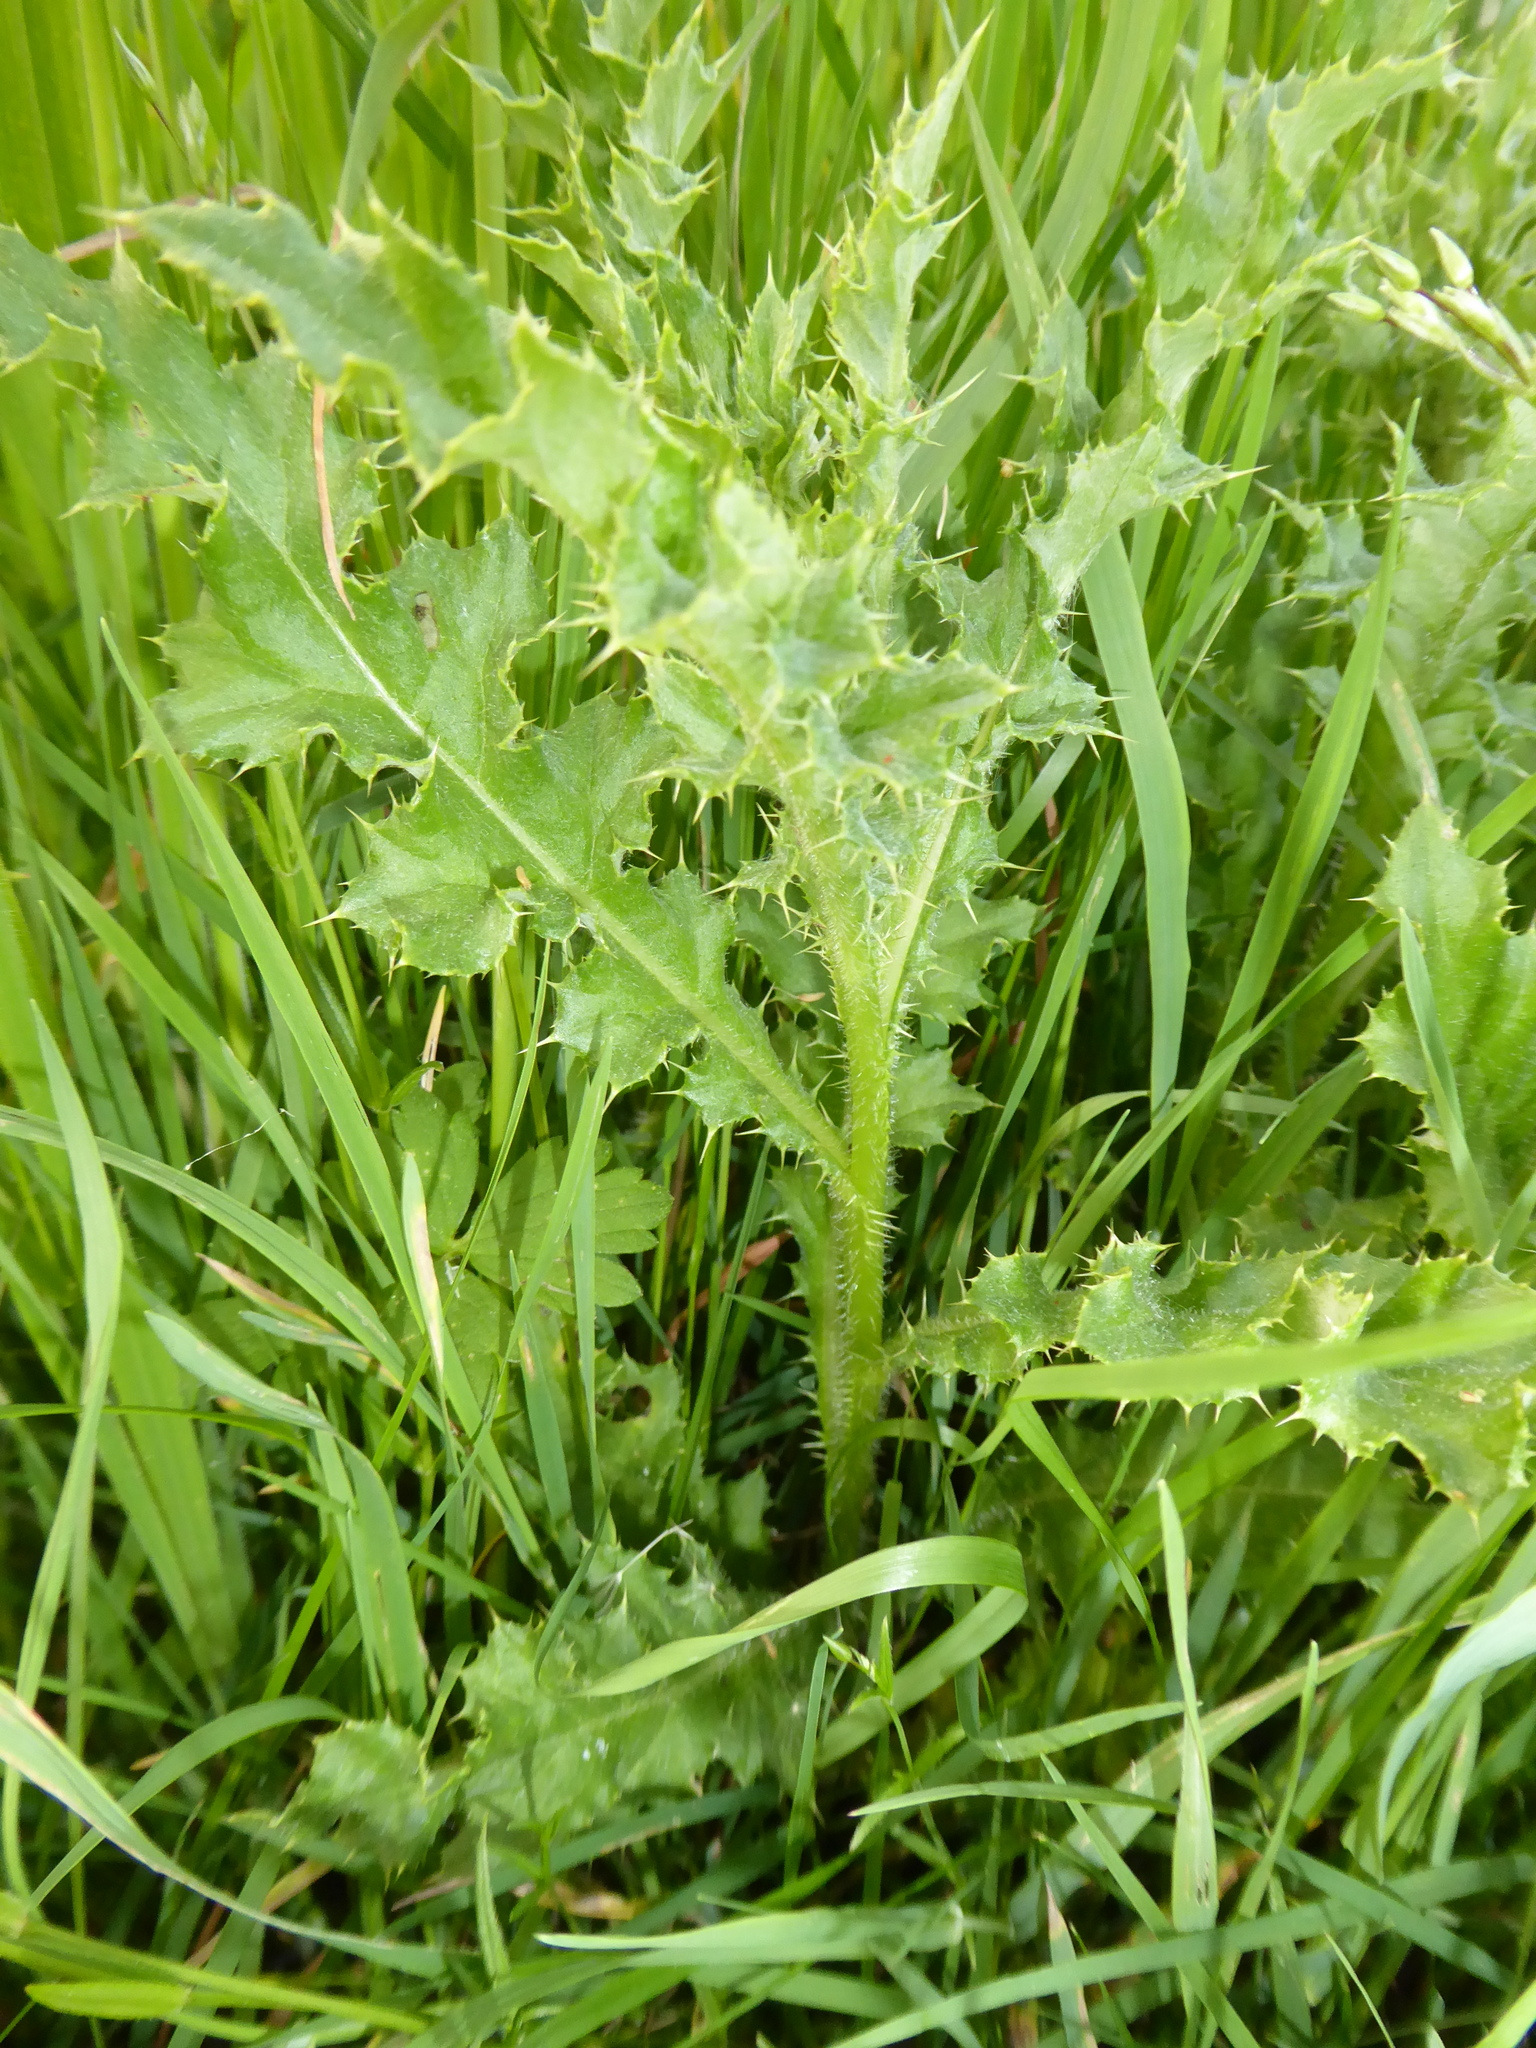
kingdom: Plantae
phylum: Tracheophyta
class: Magnoliopsida
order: Asterales
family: Asteraceae
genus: Cirsium
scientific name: Cirsium arvense
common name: Creeping thistle
